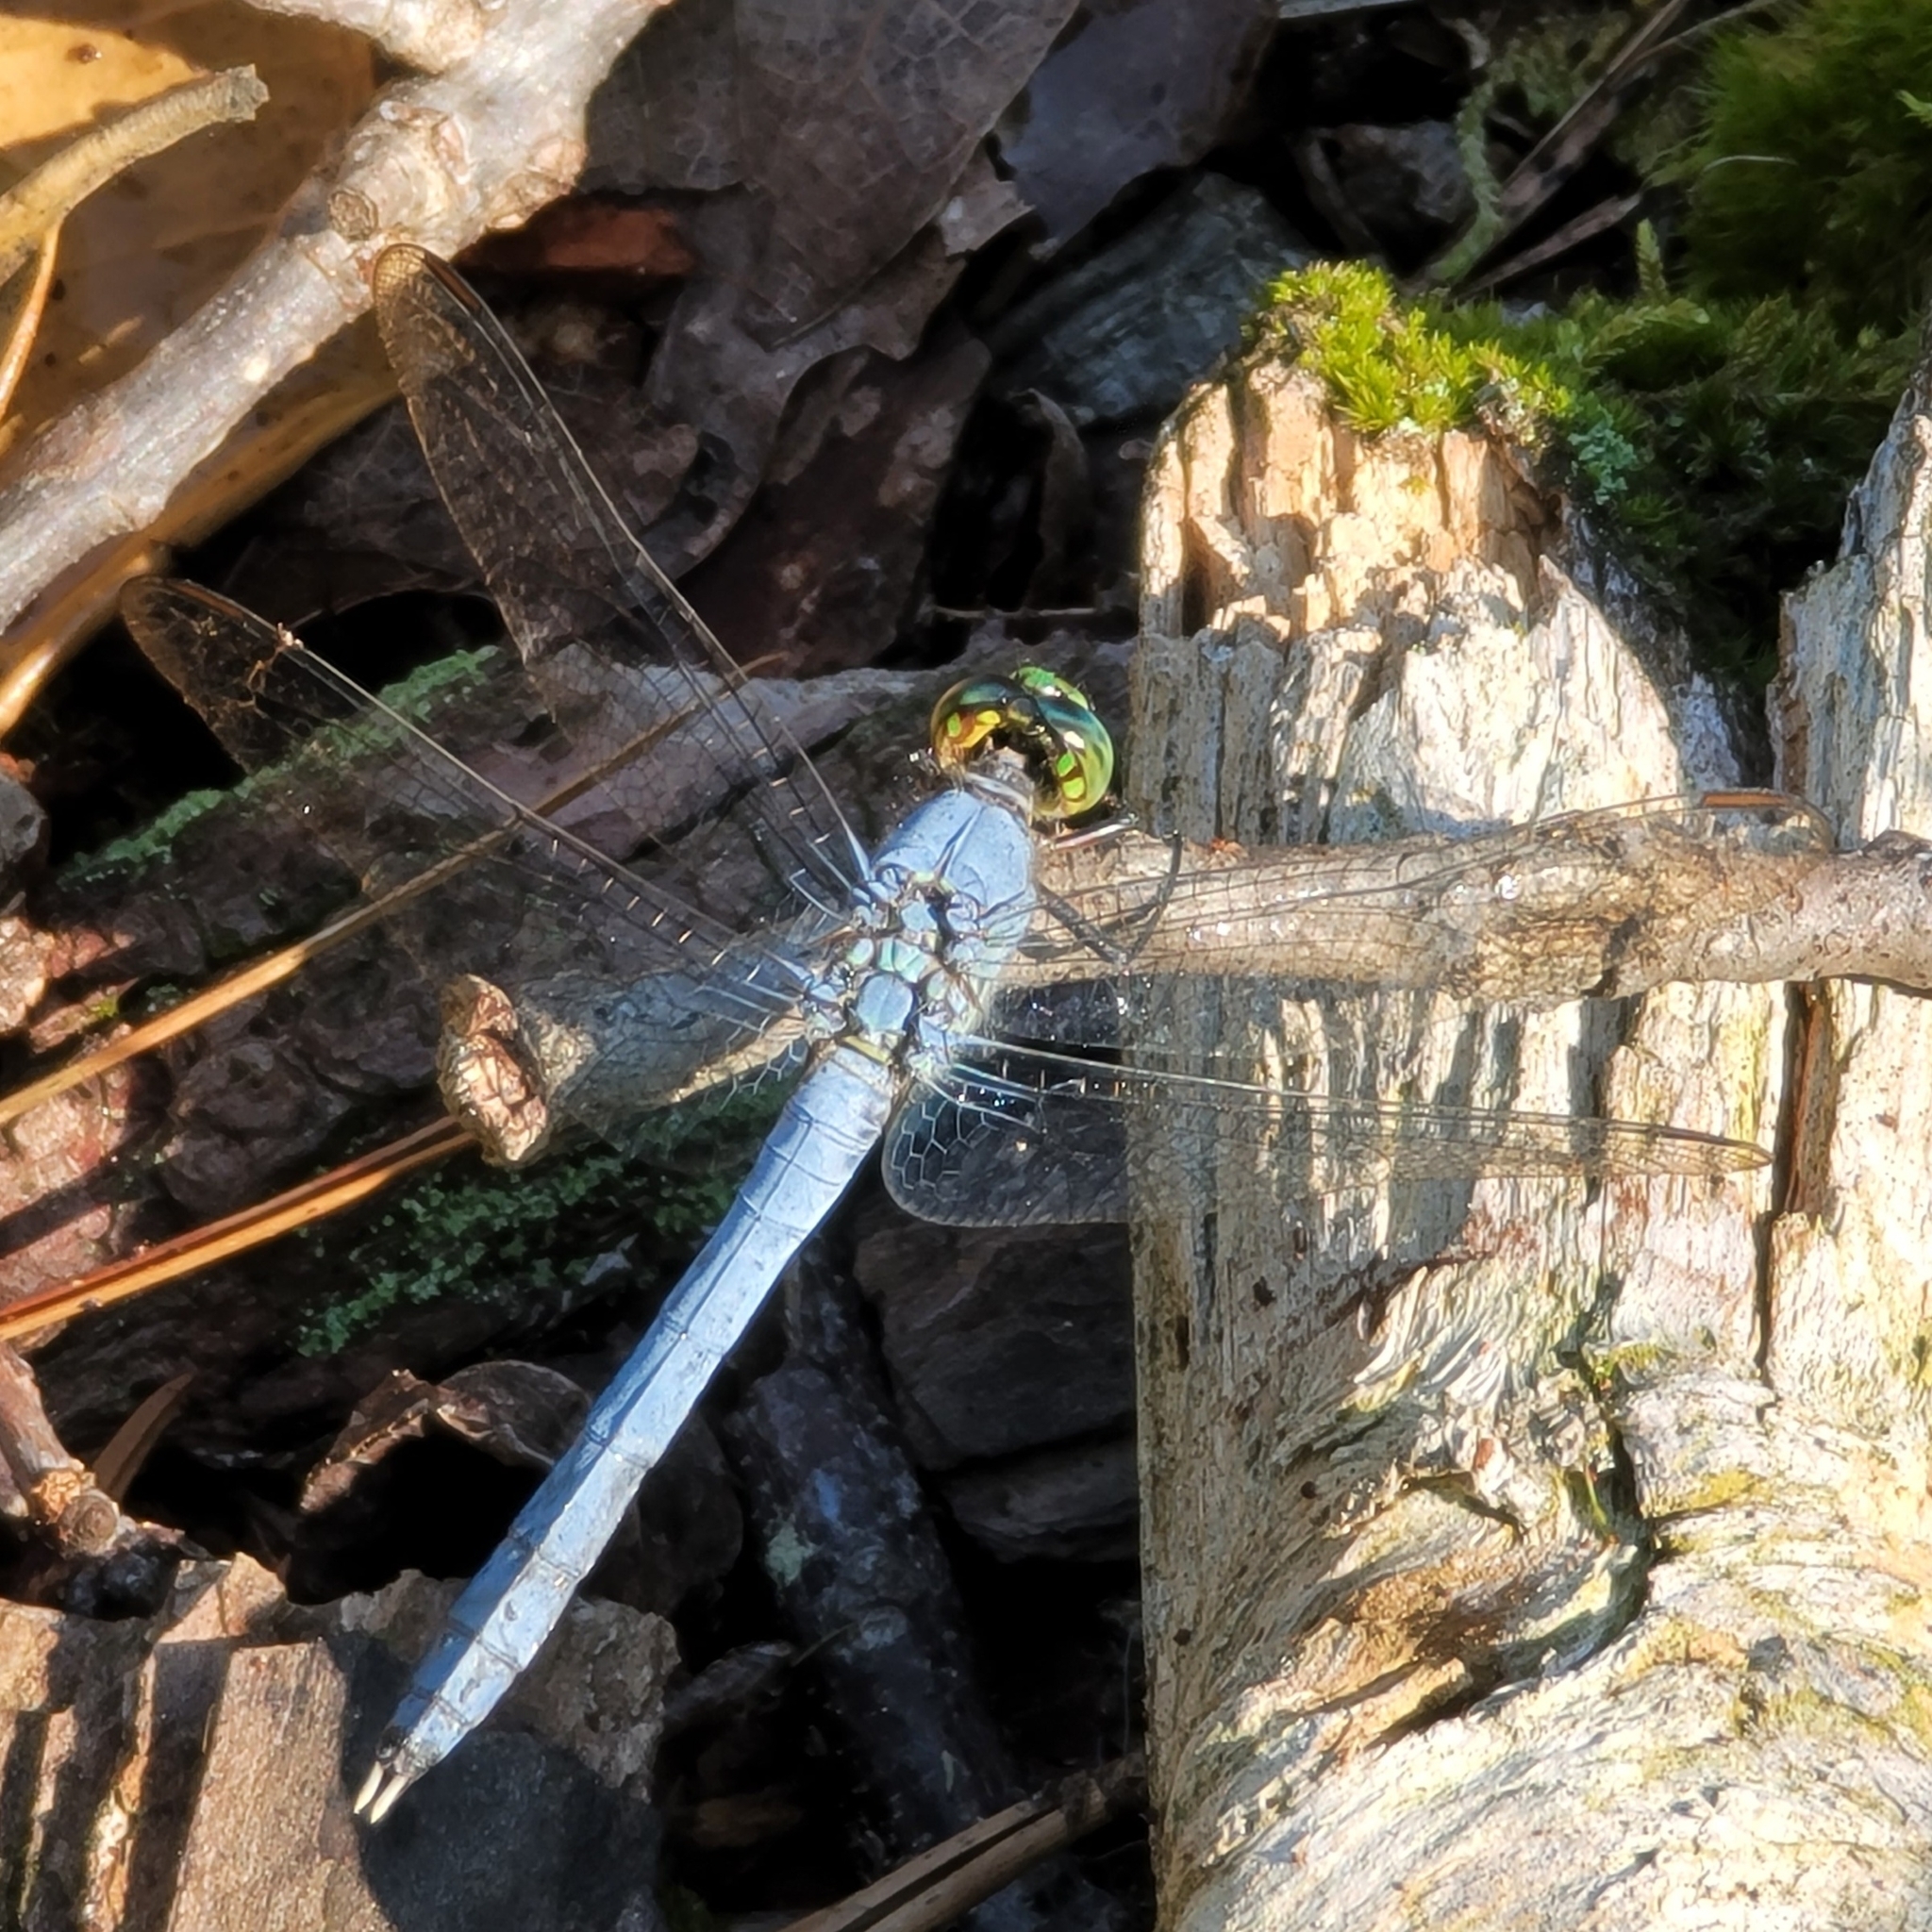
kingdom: Animalia
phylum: Arthropoda
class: Insecta
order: Odonata
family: Libellulidae
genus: Erythemis
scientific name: Erythemis simplicicollis
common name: Eastern pondhawk
